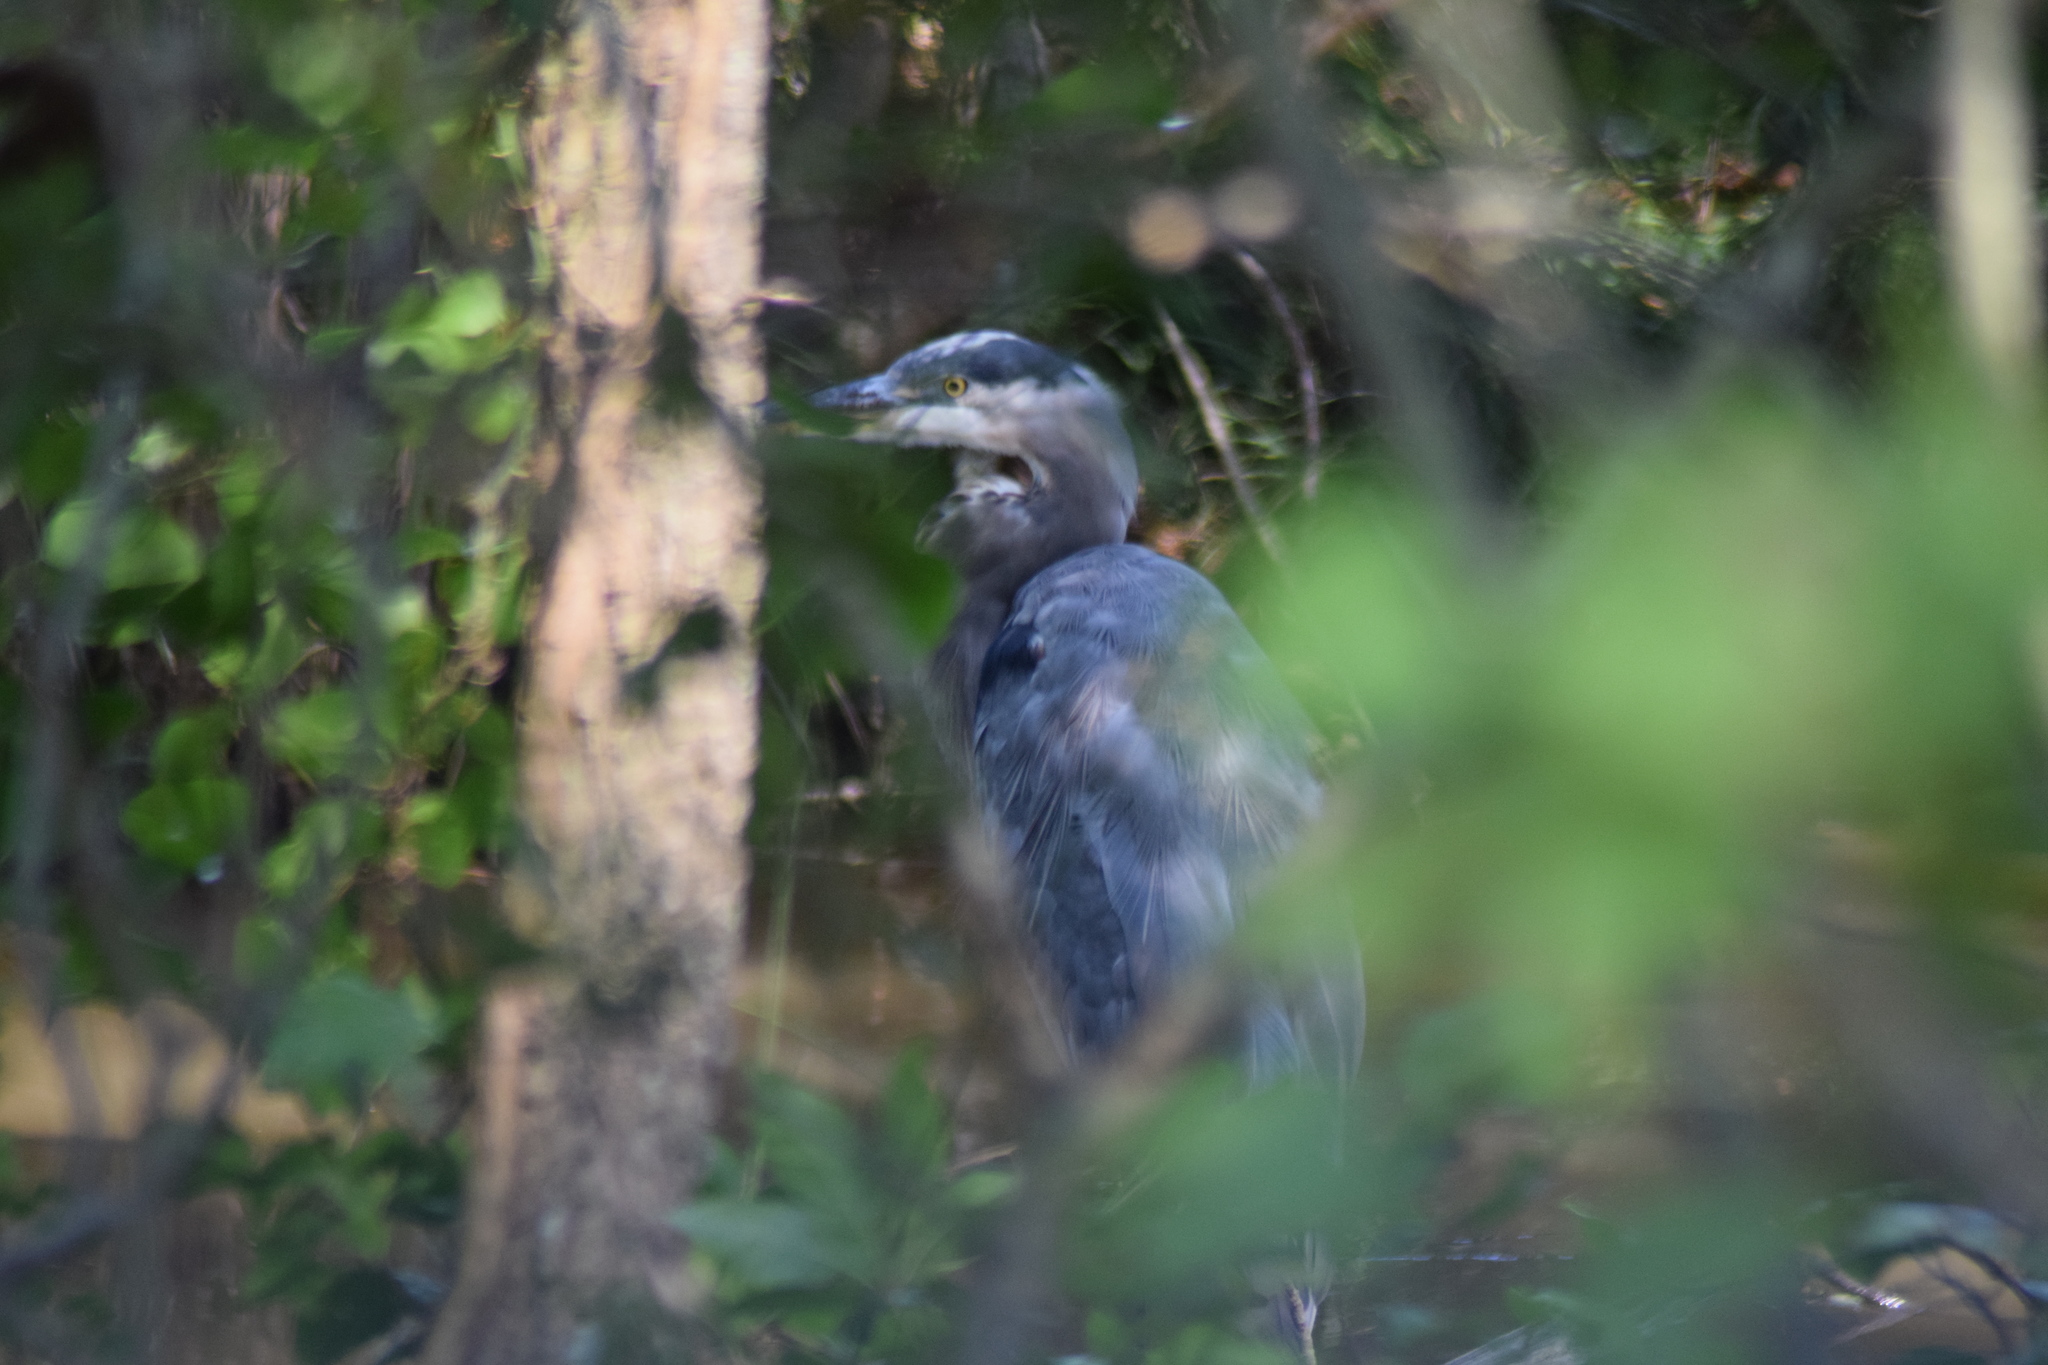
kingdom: Animalia
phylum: Chordata
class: Aves
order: Pelecaniformes
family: Ardeidae
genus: Ardea
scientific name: Ardea herodias
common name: Great blue heron
